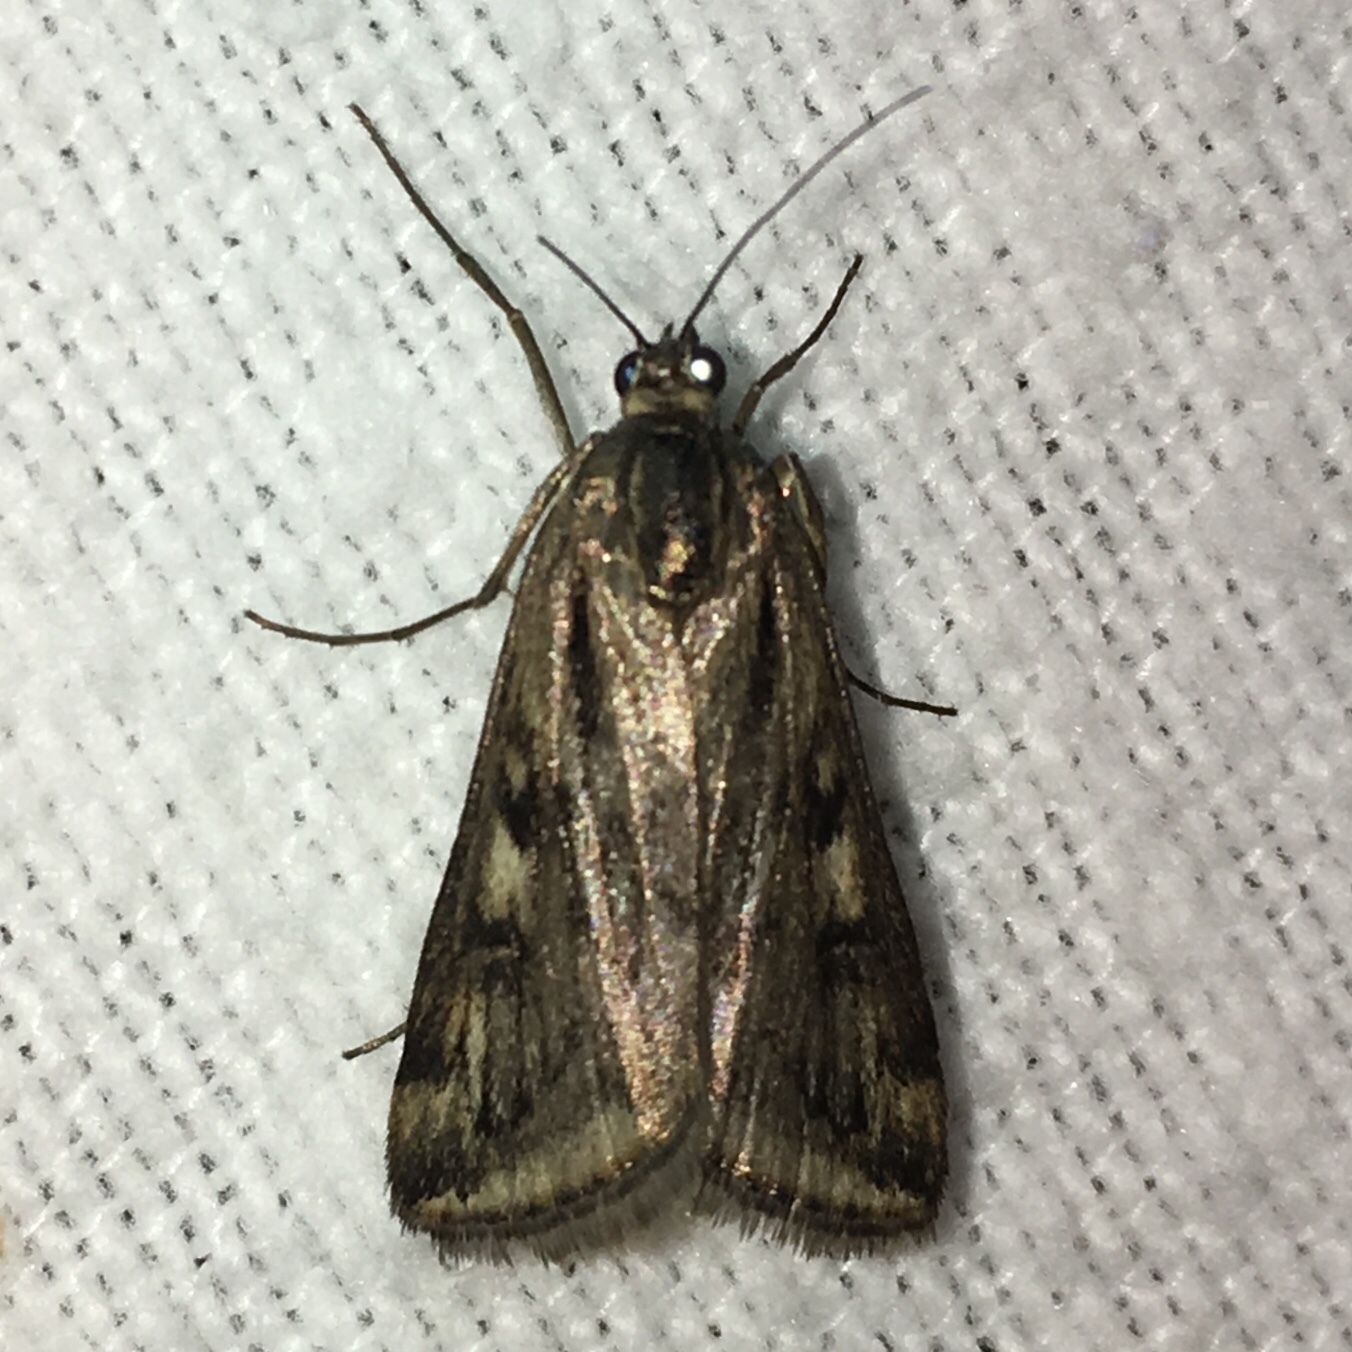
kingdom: Animalia
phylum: Arthropoda
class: Insecta
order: Lepidoptera
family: Crambidae
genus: Loxostege
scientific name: Loxostege cereralis
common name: Alfalfa webworm moth
